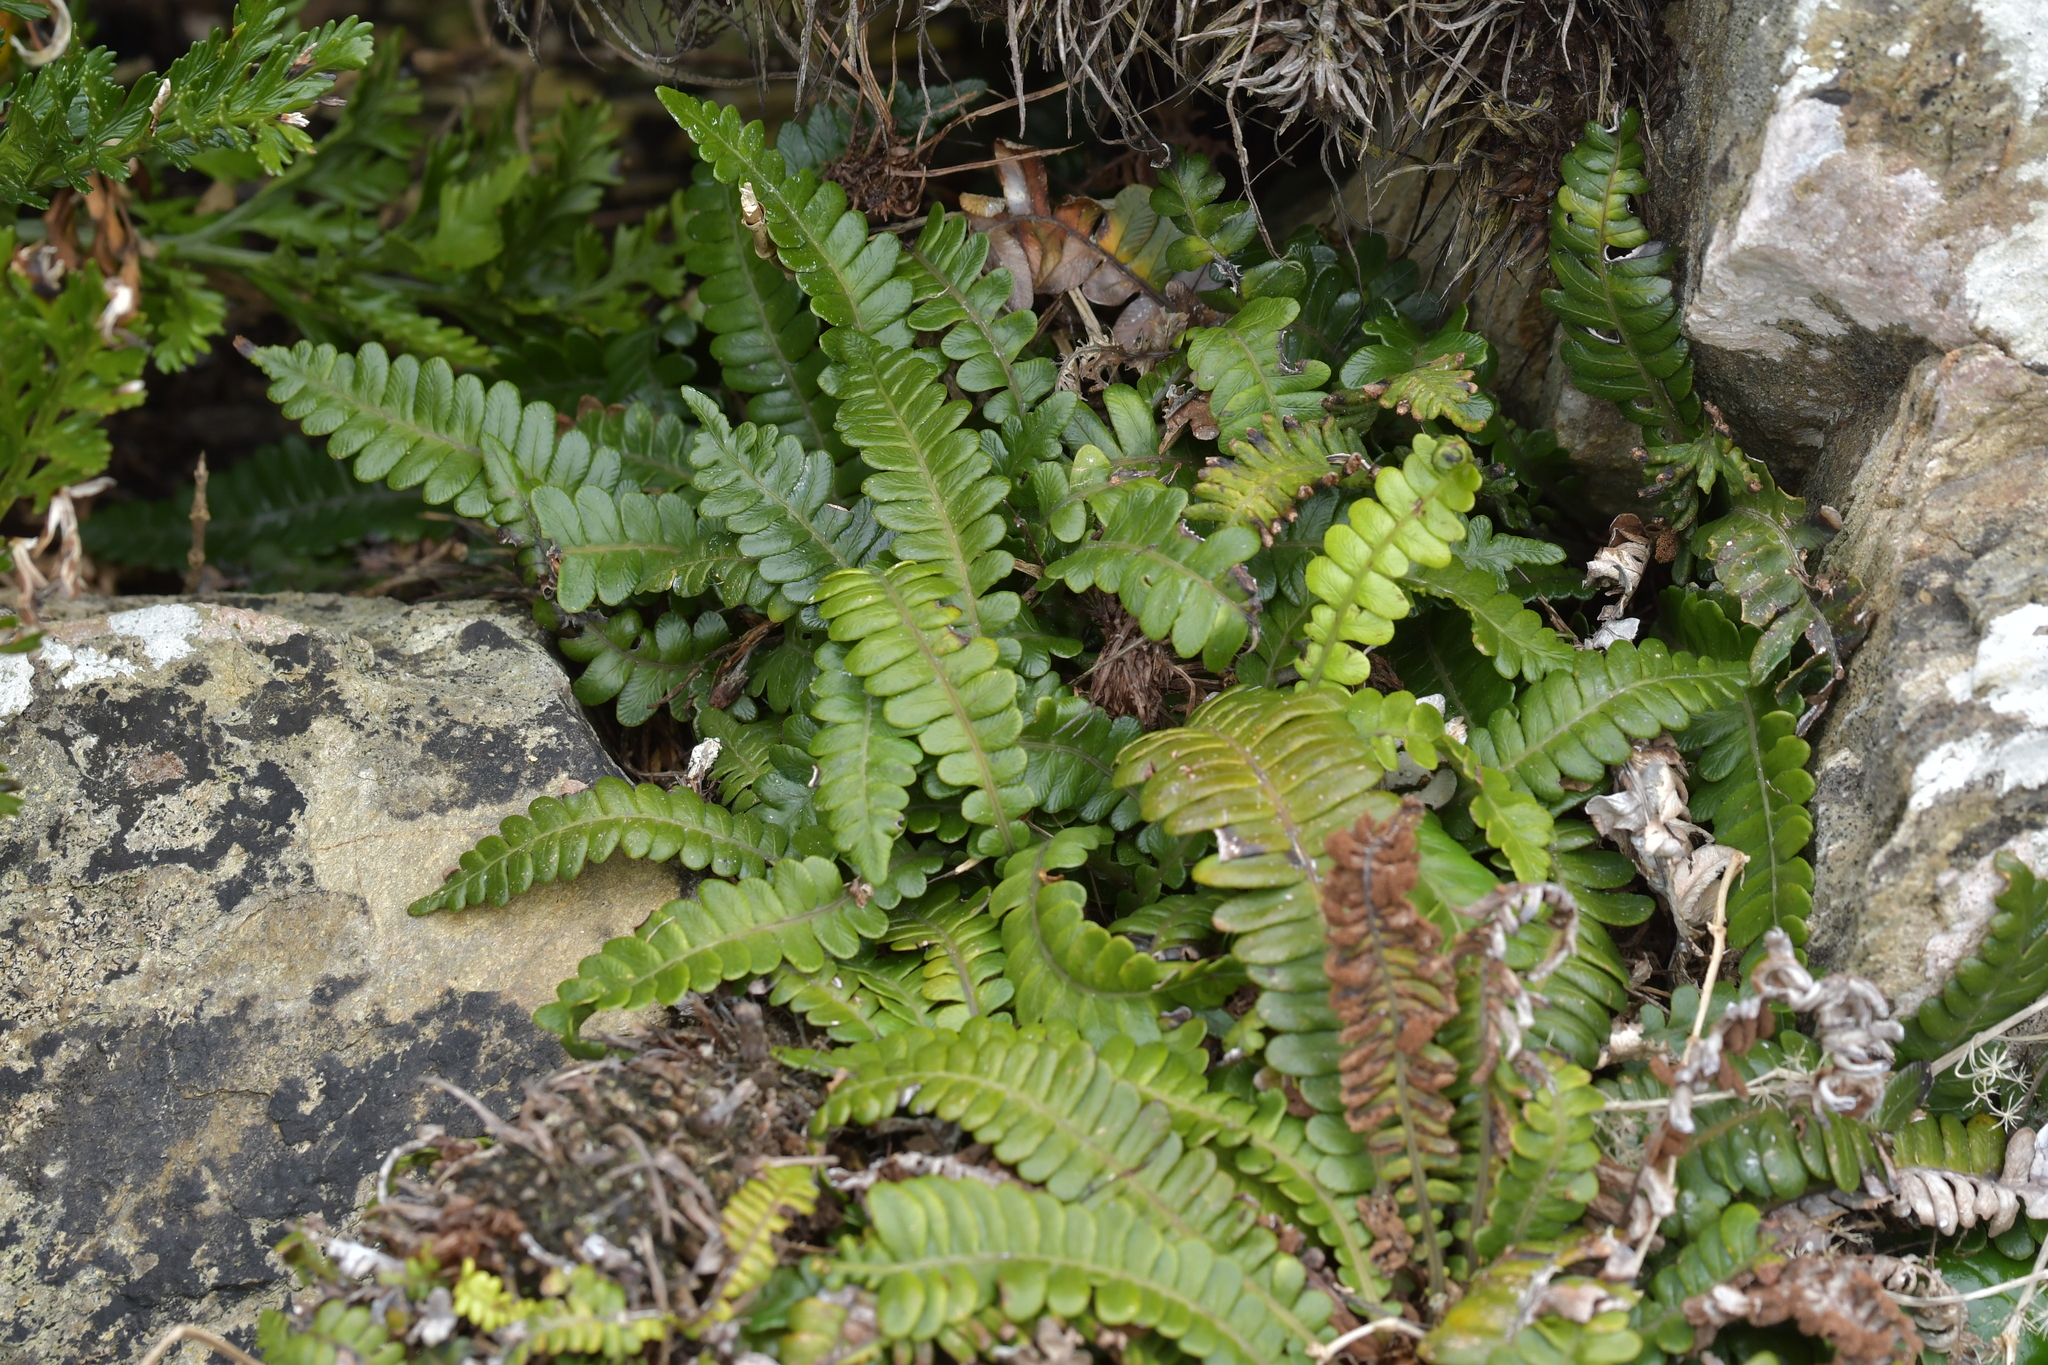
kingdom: Plantae
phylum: Tracheophyta
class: Polypodiopsida
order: Polypodiales
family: Blechnaceae
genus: Austroblechnum
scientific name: Austroblechnum durum
